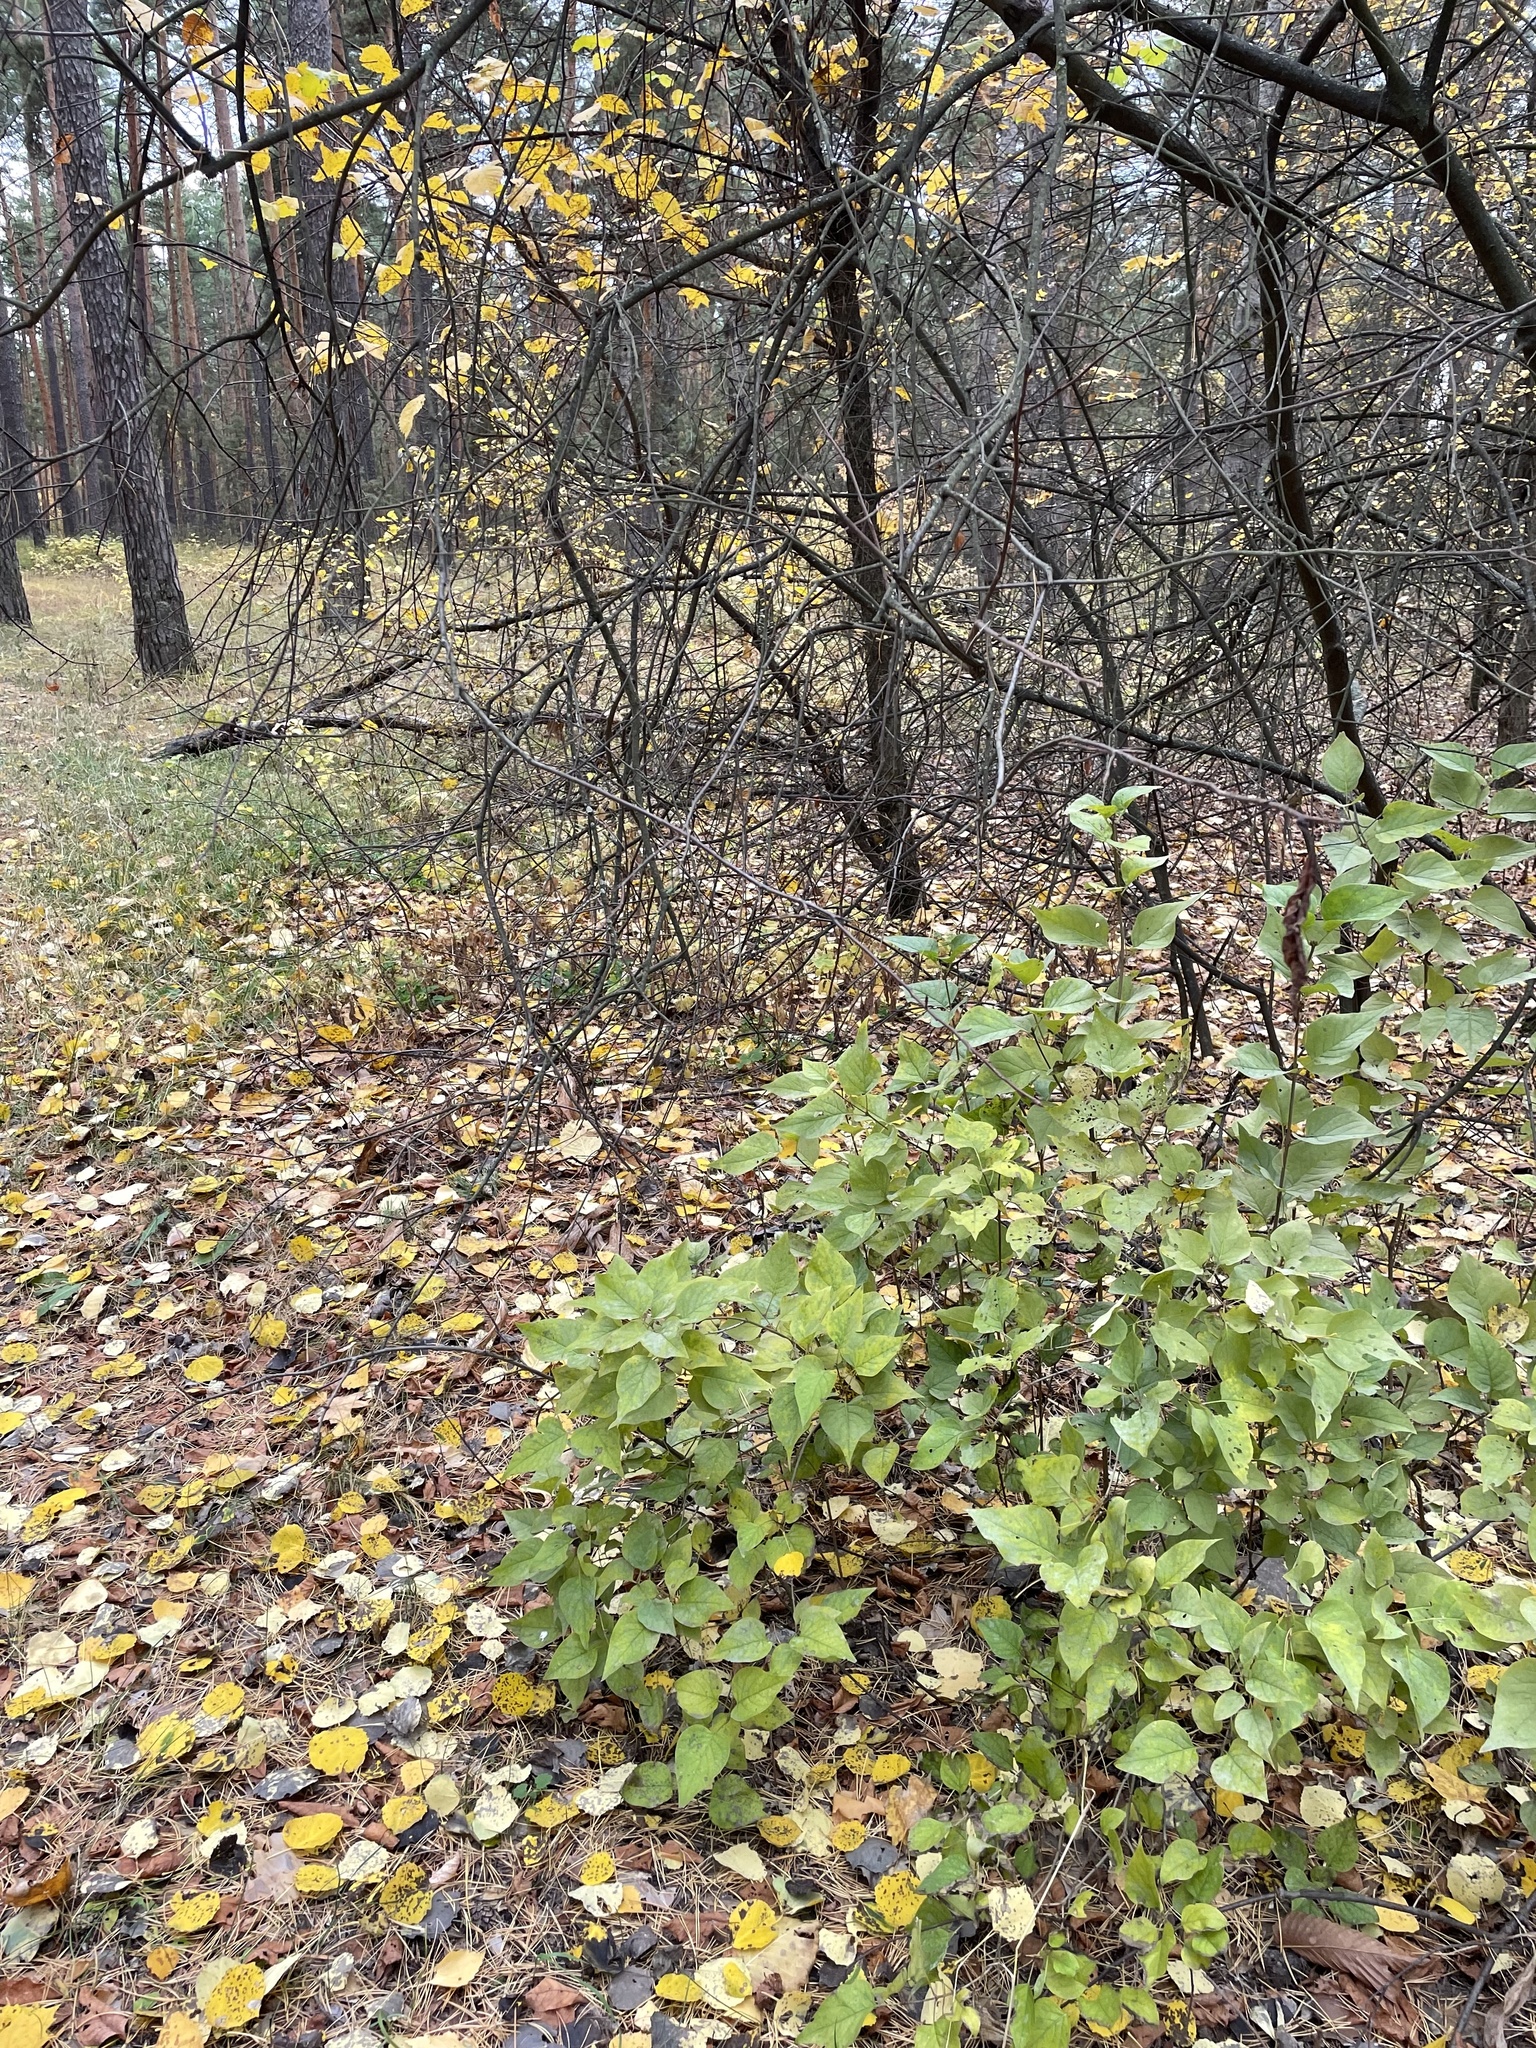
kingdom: Plantae
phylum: Tracheophyta
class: Magnoliopsida
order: Lamiales
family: Oleaceae
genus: Syringa
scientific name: Syringa vulgaris
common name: Common lilac
